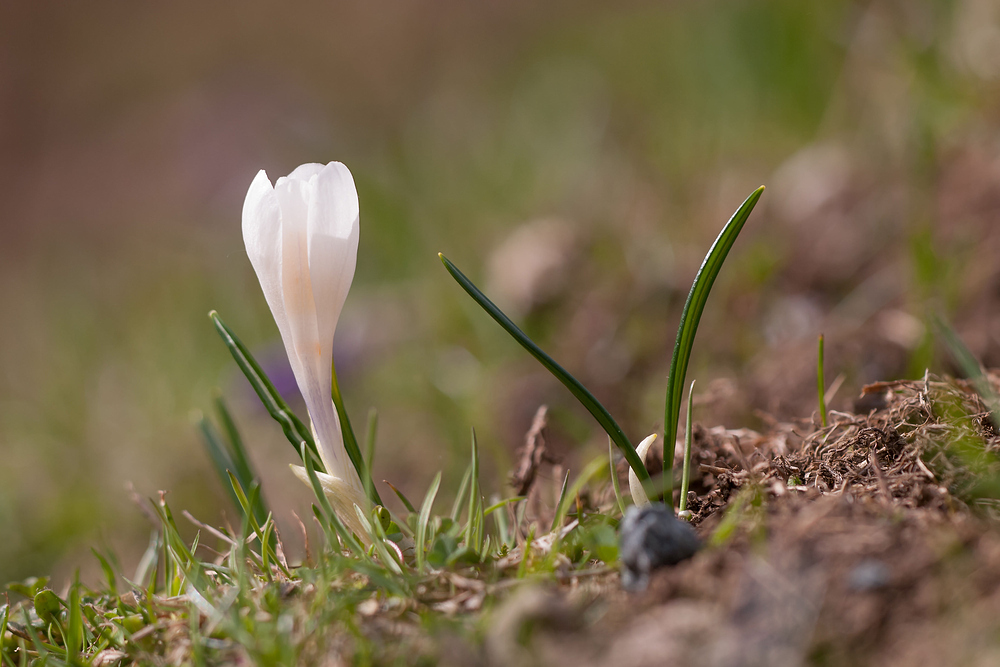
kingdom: Plantae
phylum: Tracheophyta
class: Liliopsida
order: Asparagales
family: Iridaceae
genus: Crocus
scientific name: Crocus vernus
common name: Spring crocus
